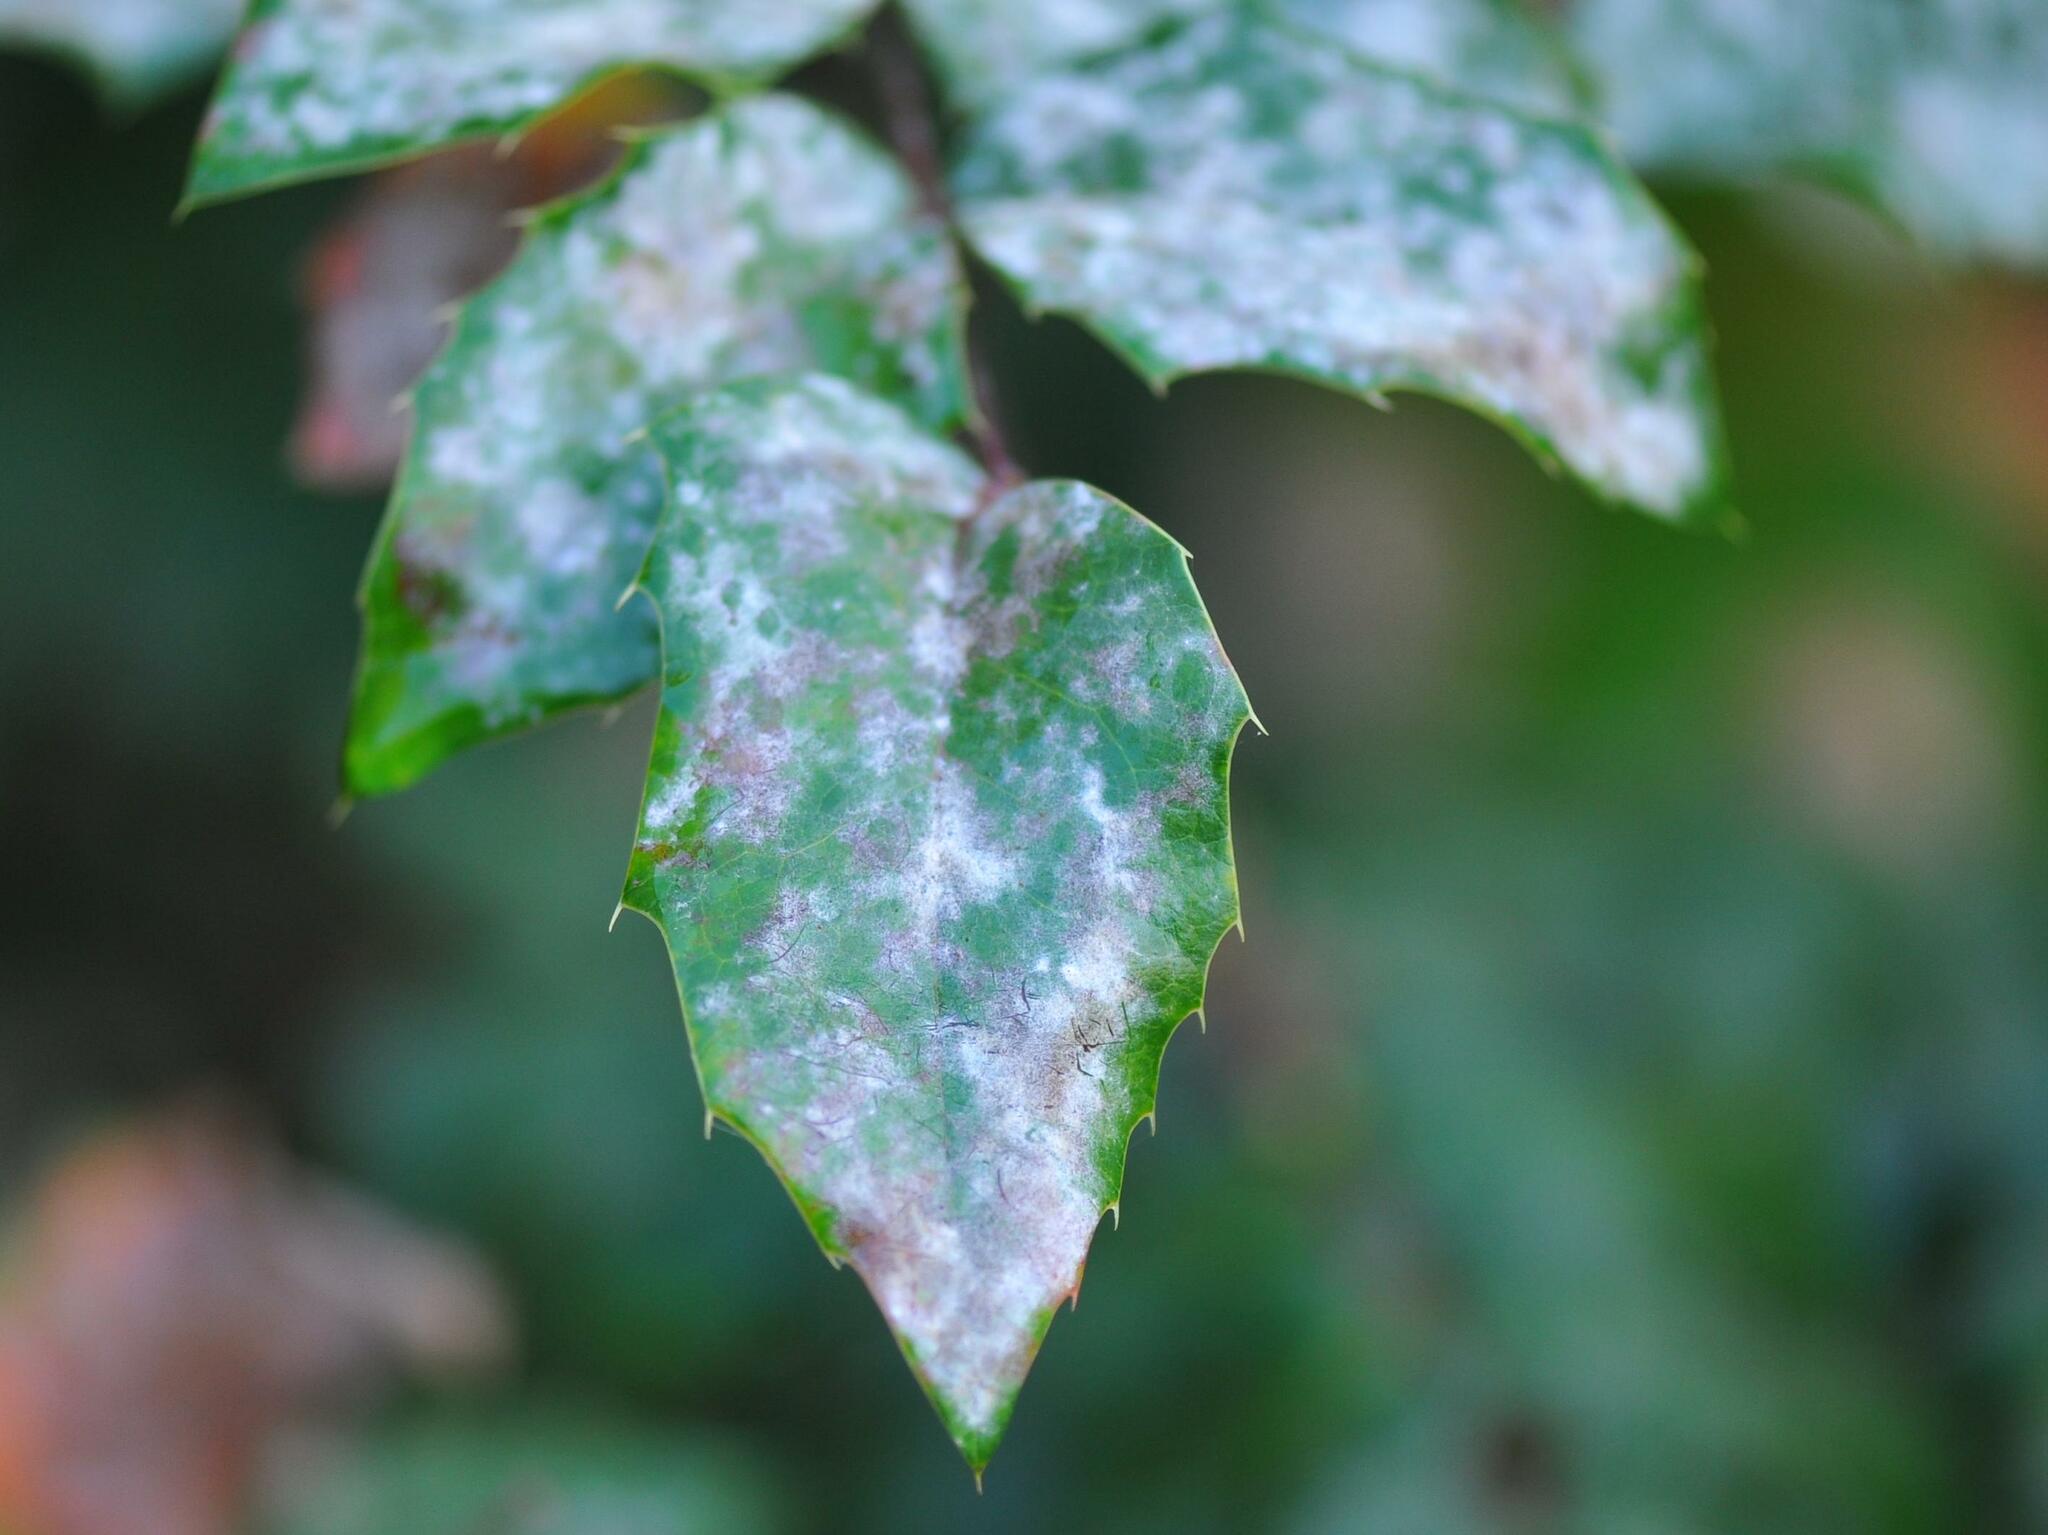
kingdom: Fungi
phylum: Ascomycota
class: Leotiomycetes
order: Helotiales
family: Erysiphaceae
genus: Erysiphe
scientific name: Erysiphe berberidis
